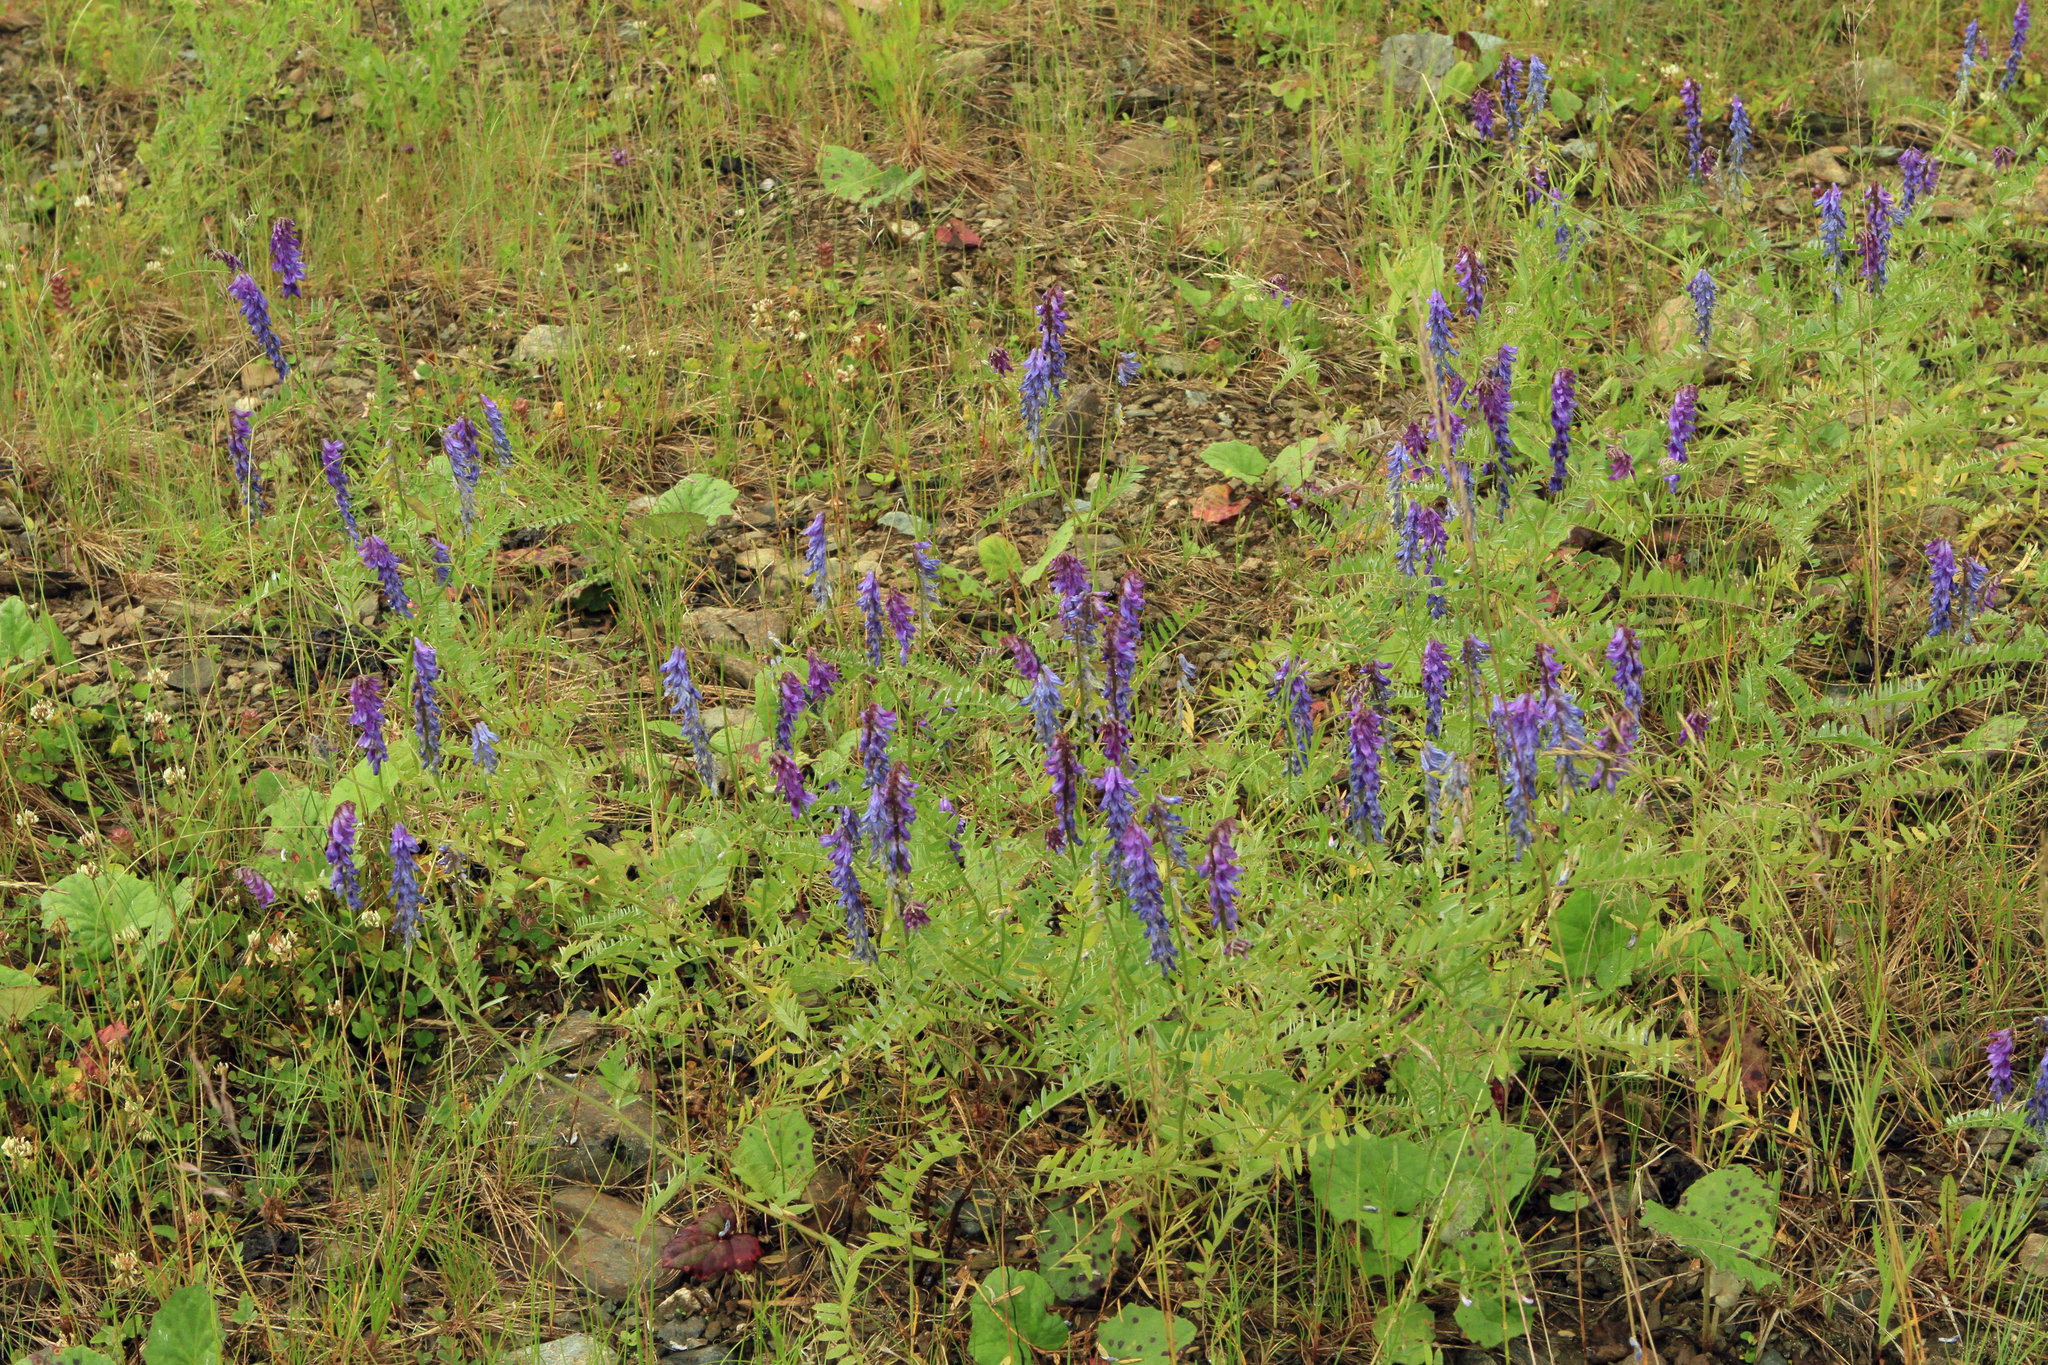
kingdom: Plantae
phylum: Tracheophyta
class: Magnoliopsida
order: Fabales
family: Fabaceae
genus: Vicia
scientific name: Vicia cracca
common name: Bird vetch
